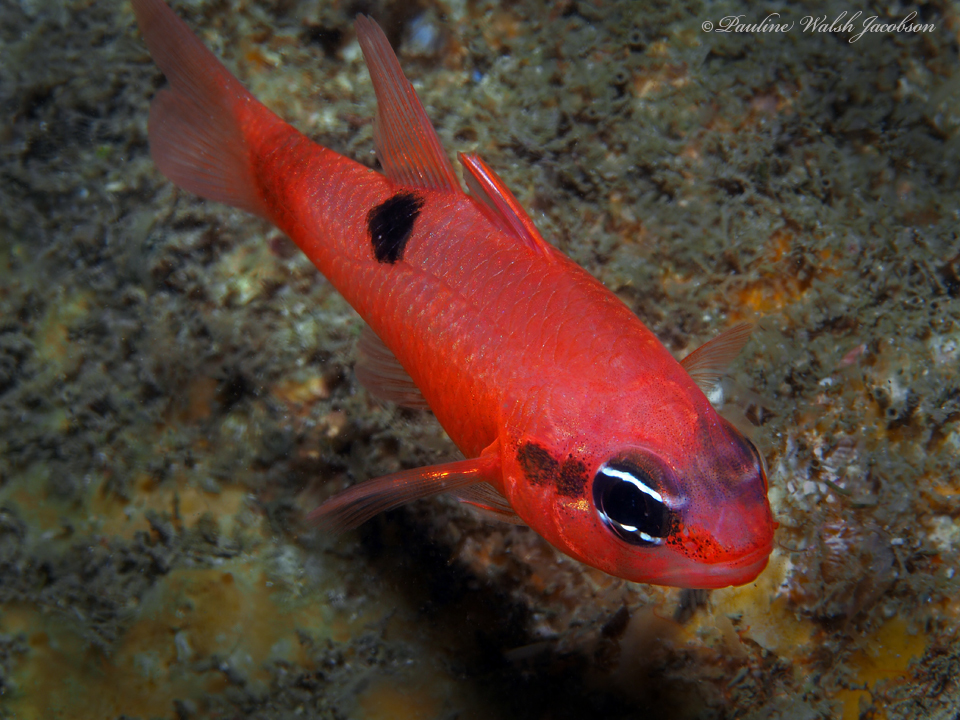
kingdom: Animalia
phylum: Chordata
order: Perciformes
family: Apogonidae
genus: Apogon
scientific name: Apogon maculatus
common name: Flamefish
